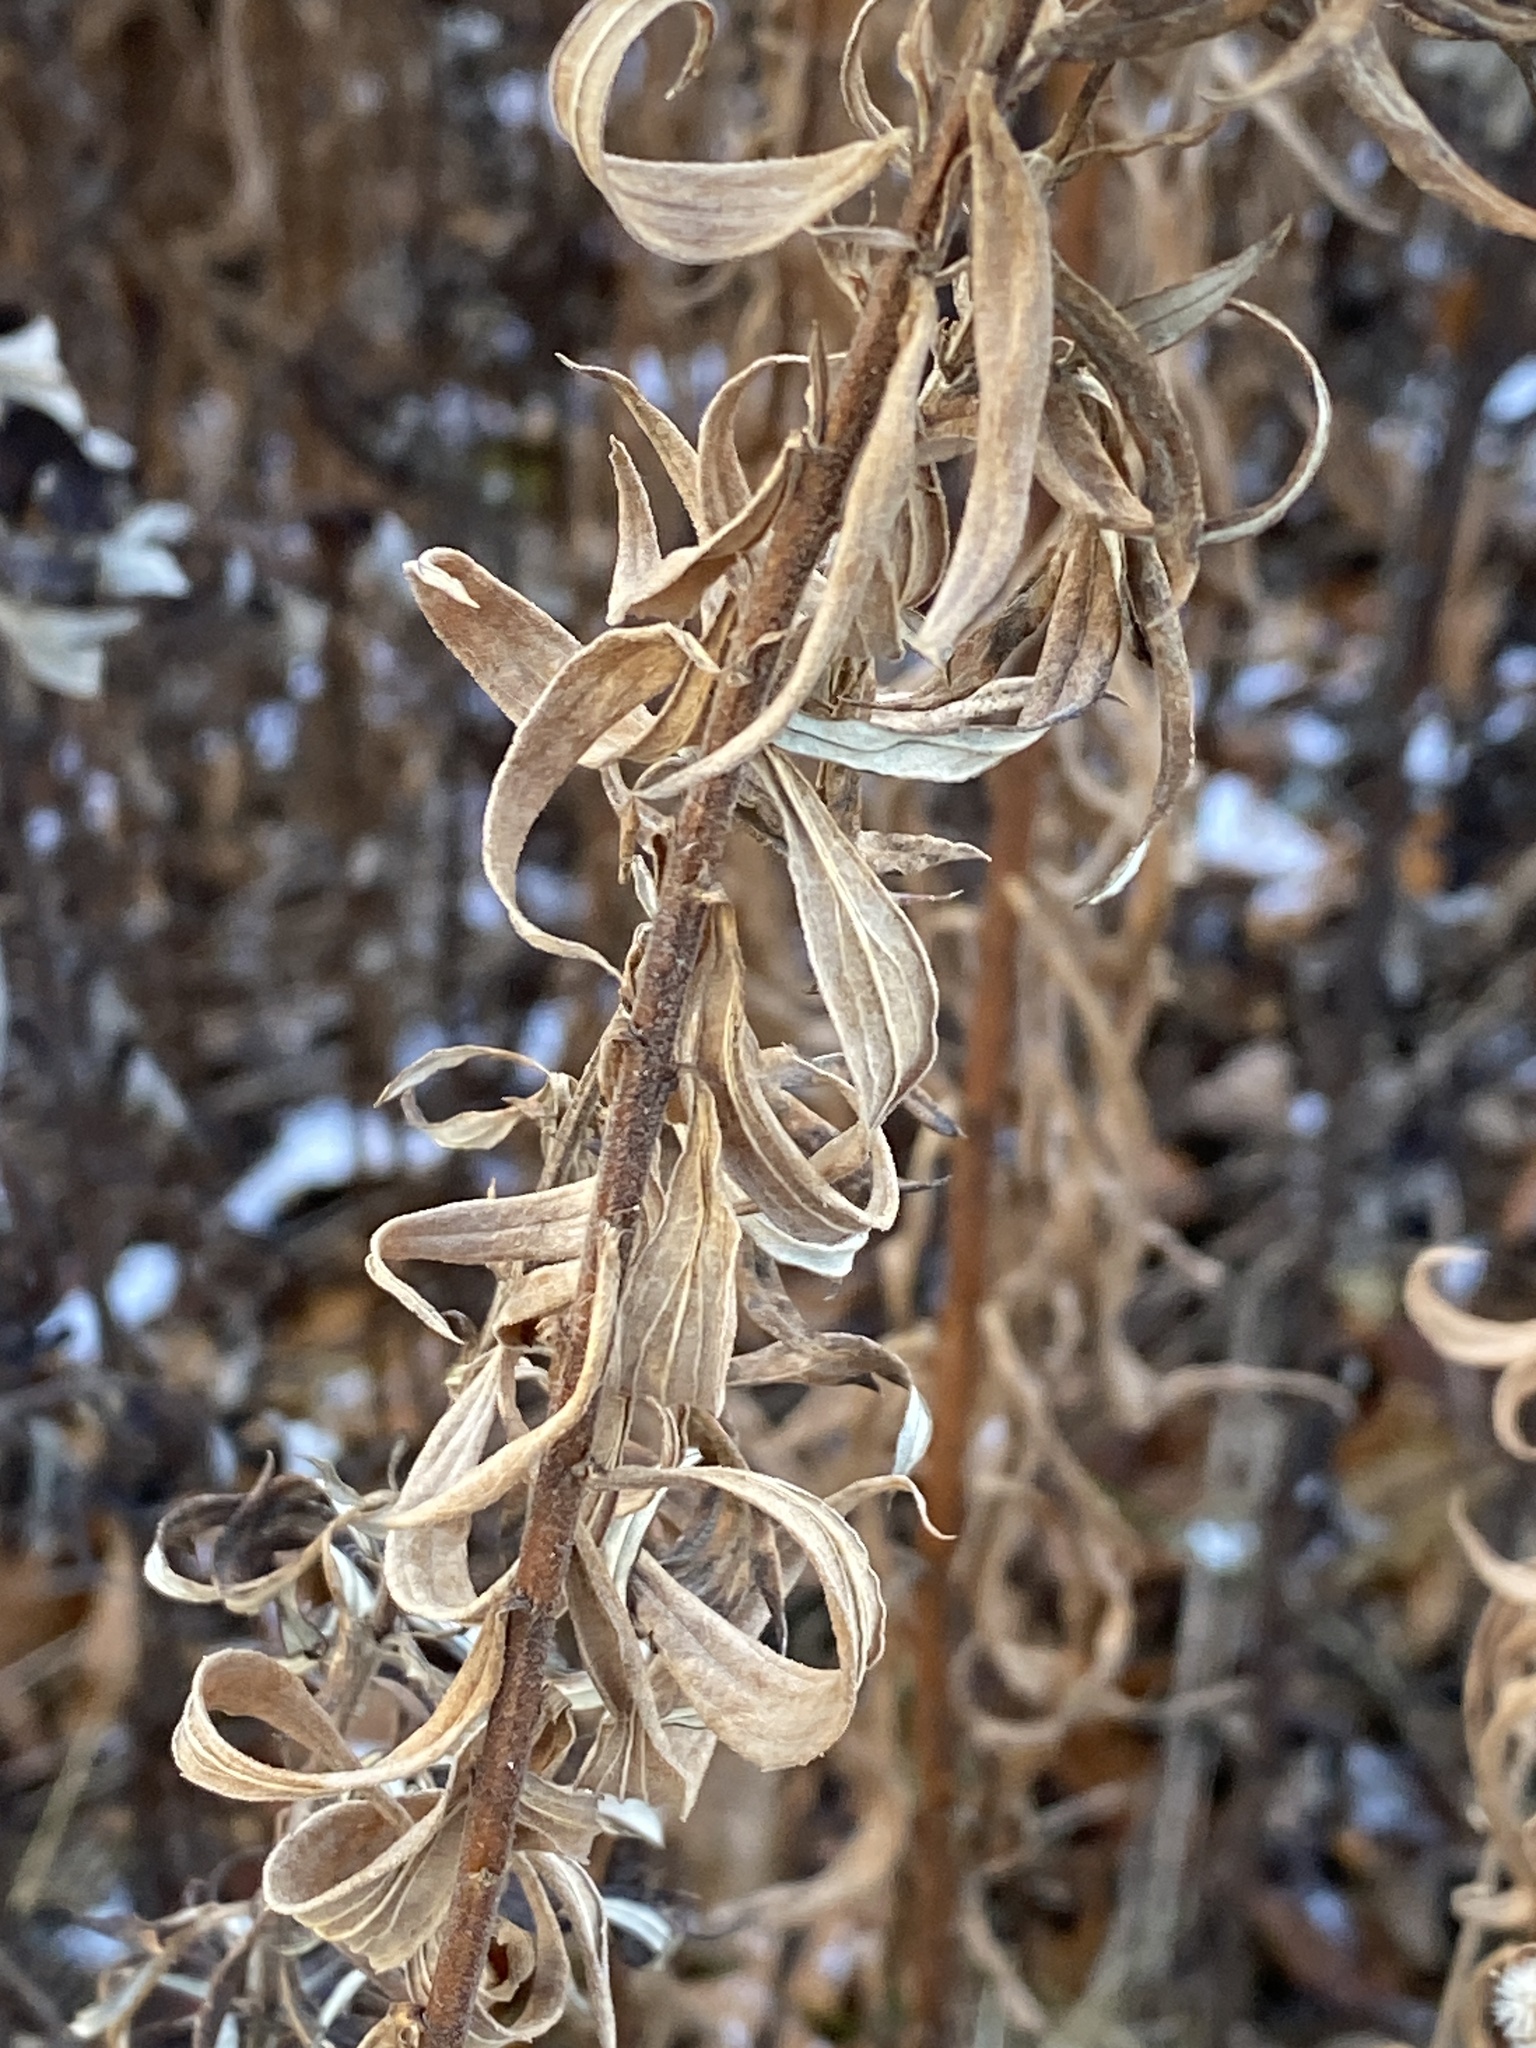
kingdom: Plantae
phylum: Tracheophyta
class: Magnoliopsida
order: Asterales
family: Asteraceae
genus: Solidago
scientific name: Solidago altissima
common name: Late goldenrod
